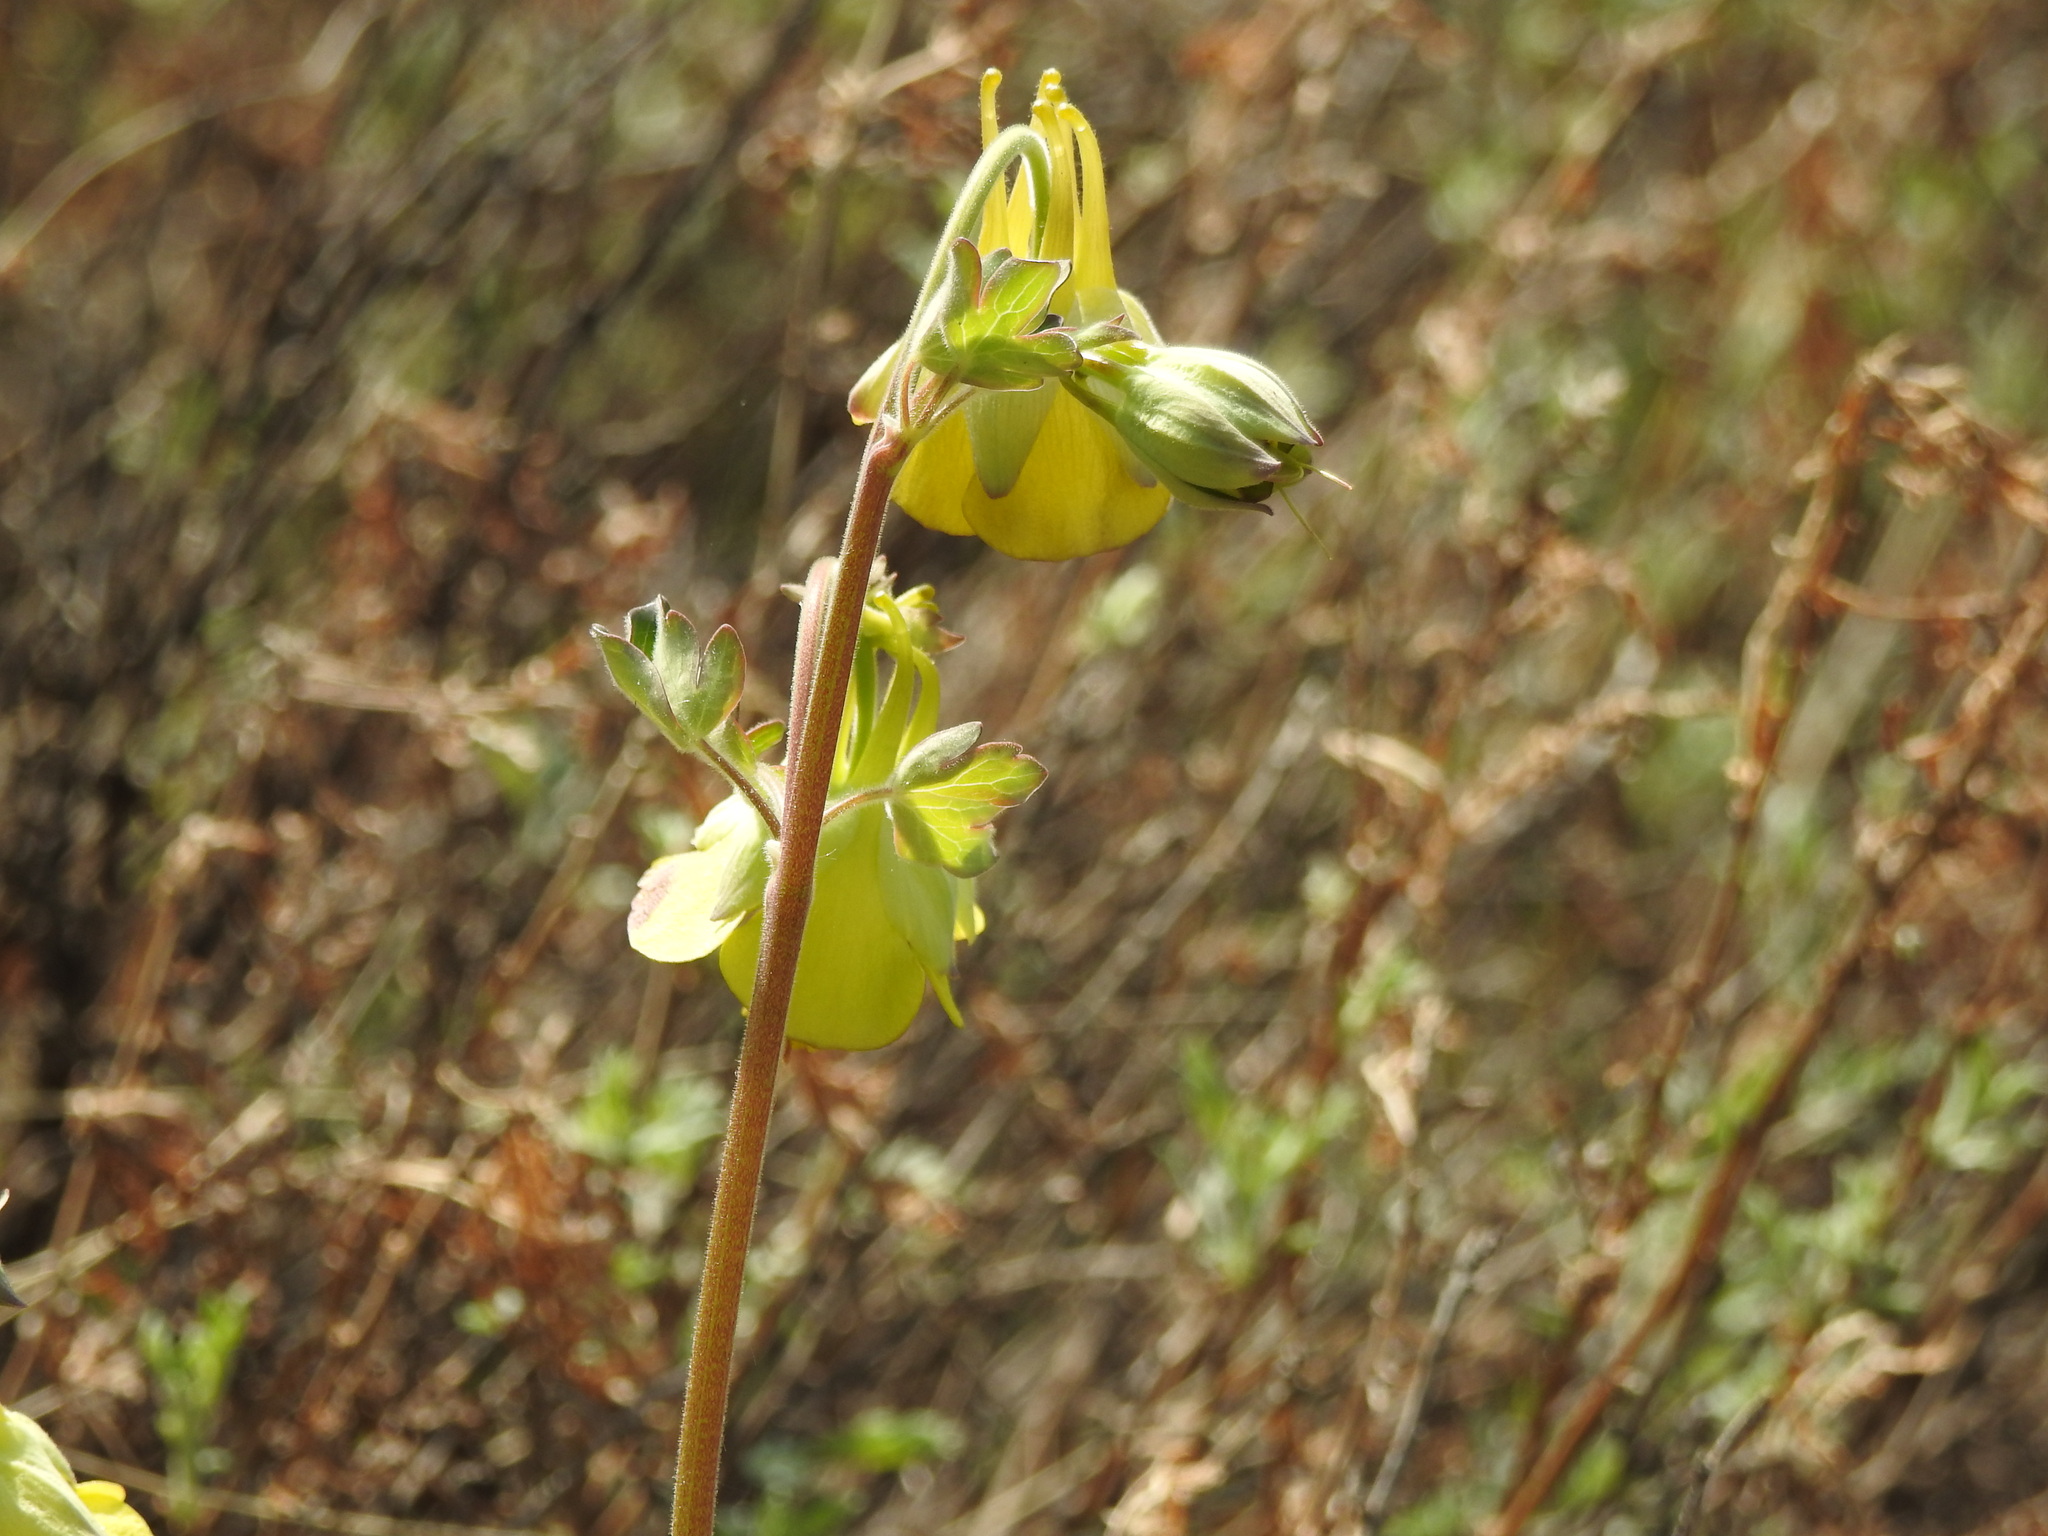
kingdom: Plantae
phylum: Tracheophyta
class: Magnoliopsida
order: Ranunculales
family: Ranunculaceae
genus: Aquilegia
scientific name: Aquilegia viridiflora
